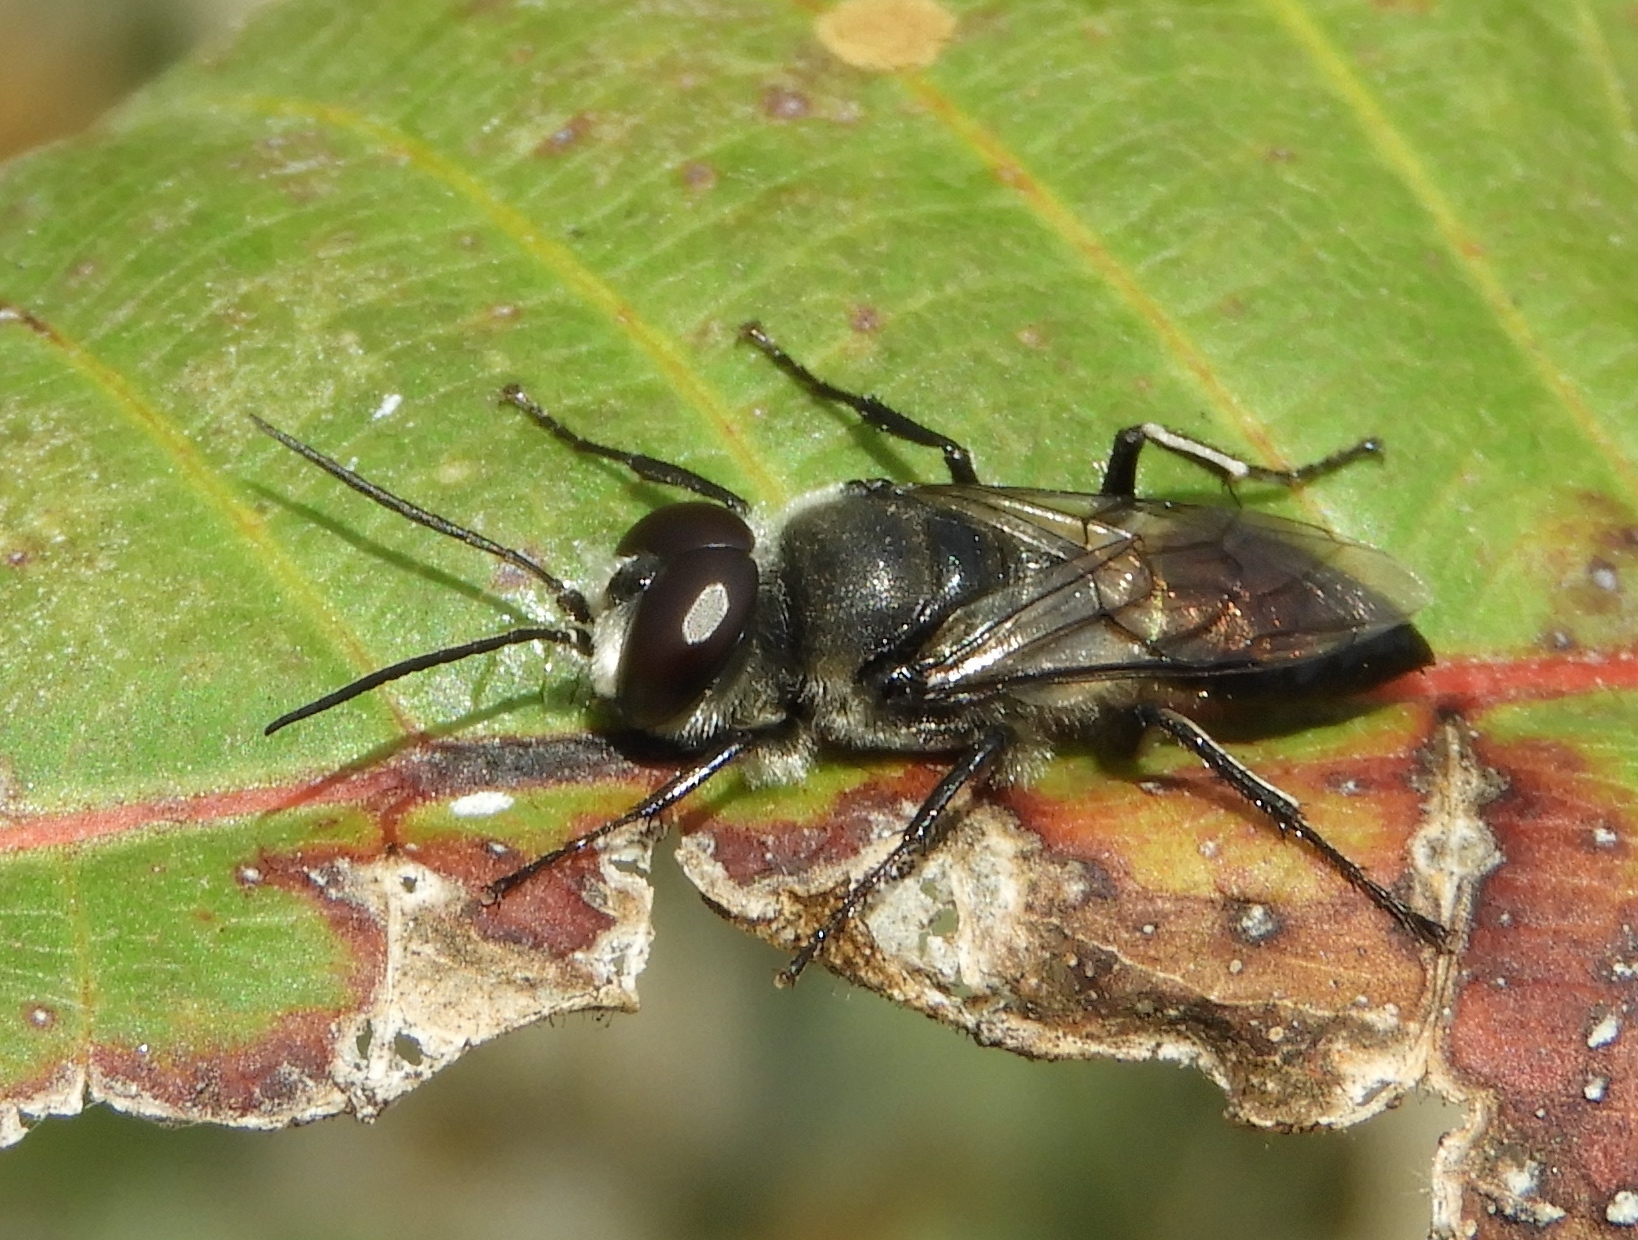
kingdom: Animalia
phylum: Arthropoda
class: Insecta
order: Hymenoptera
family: Crabronidae
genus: Astata
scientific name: Astata
